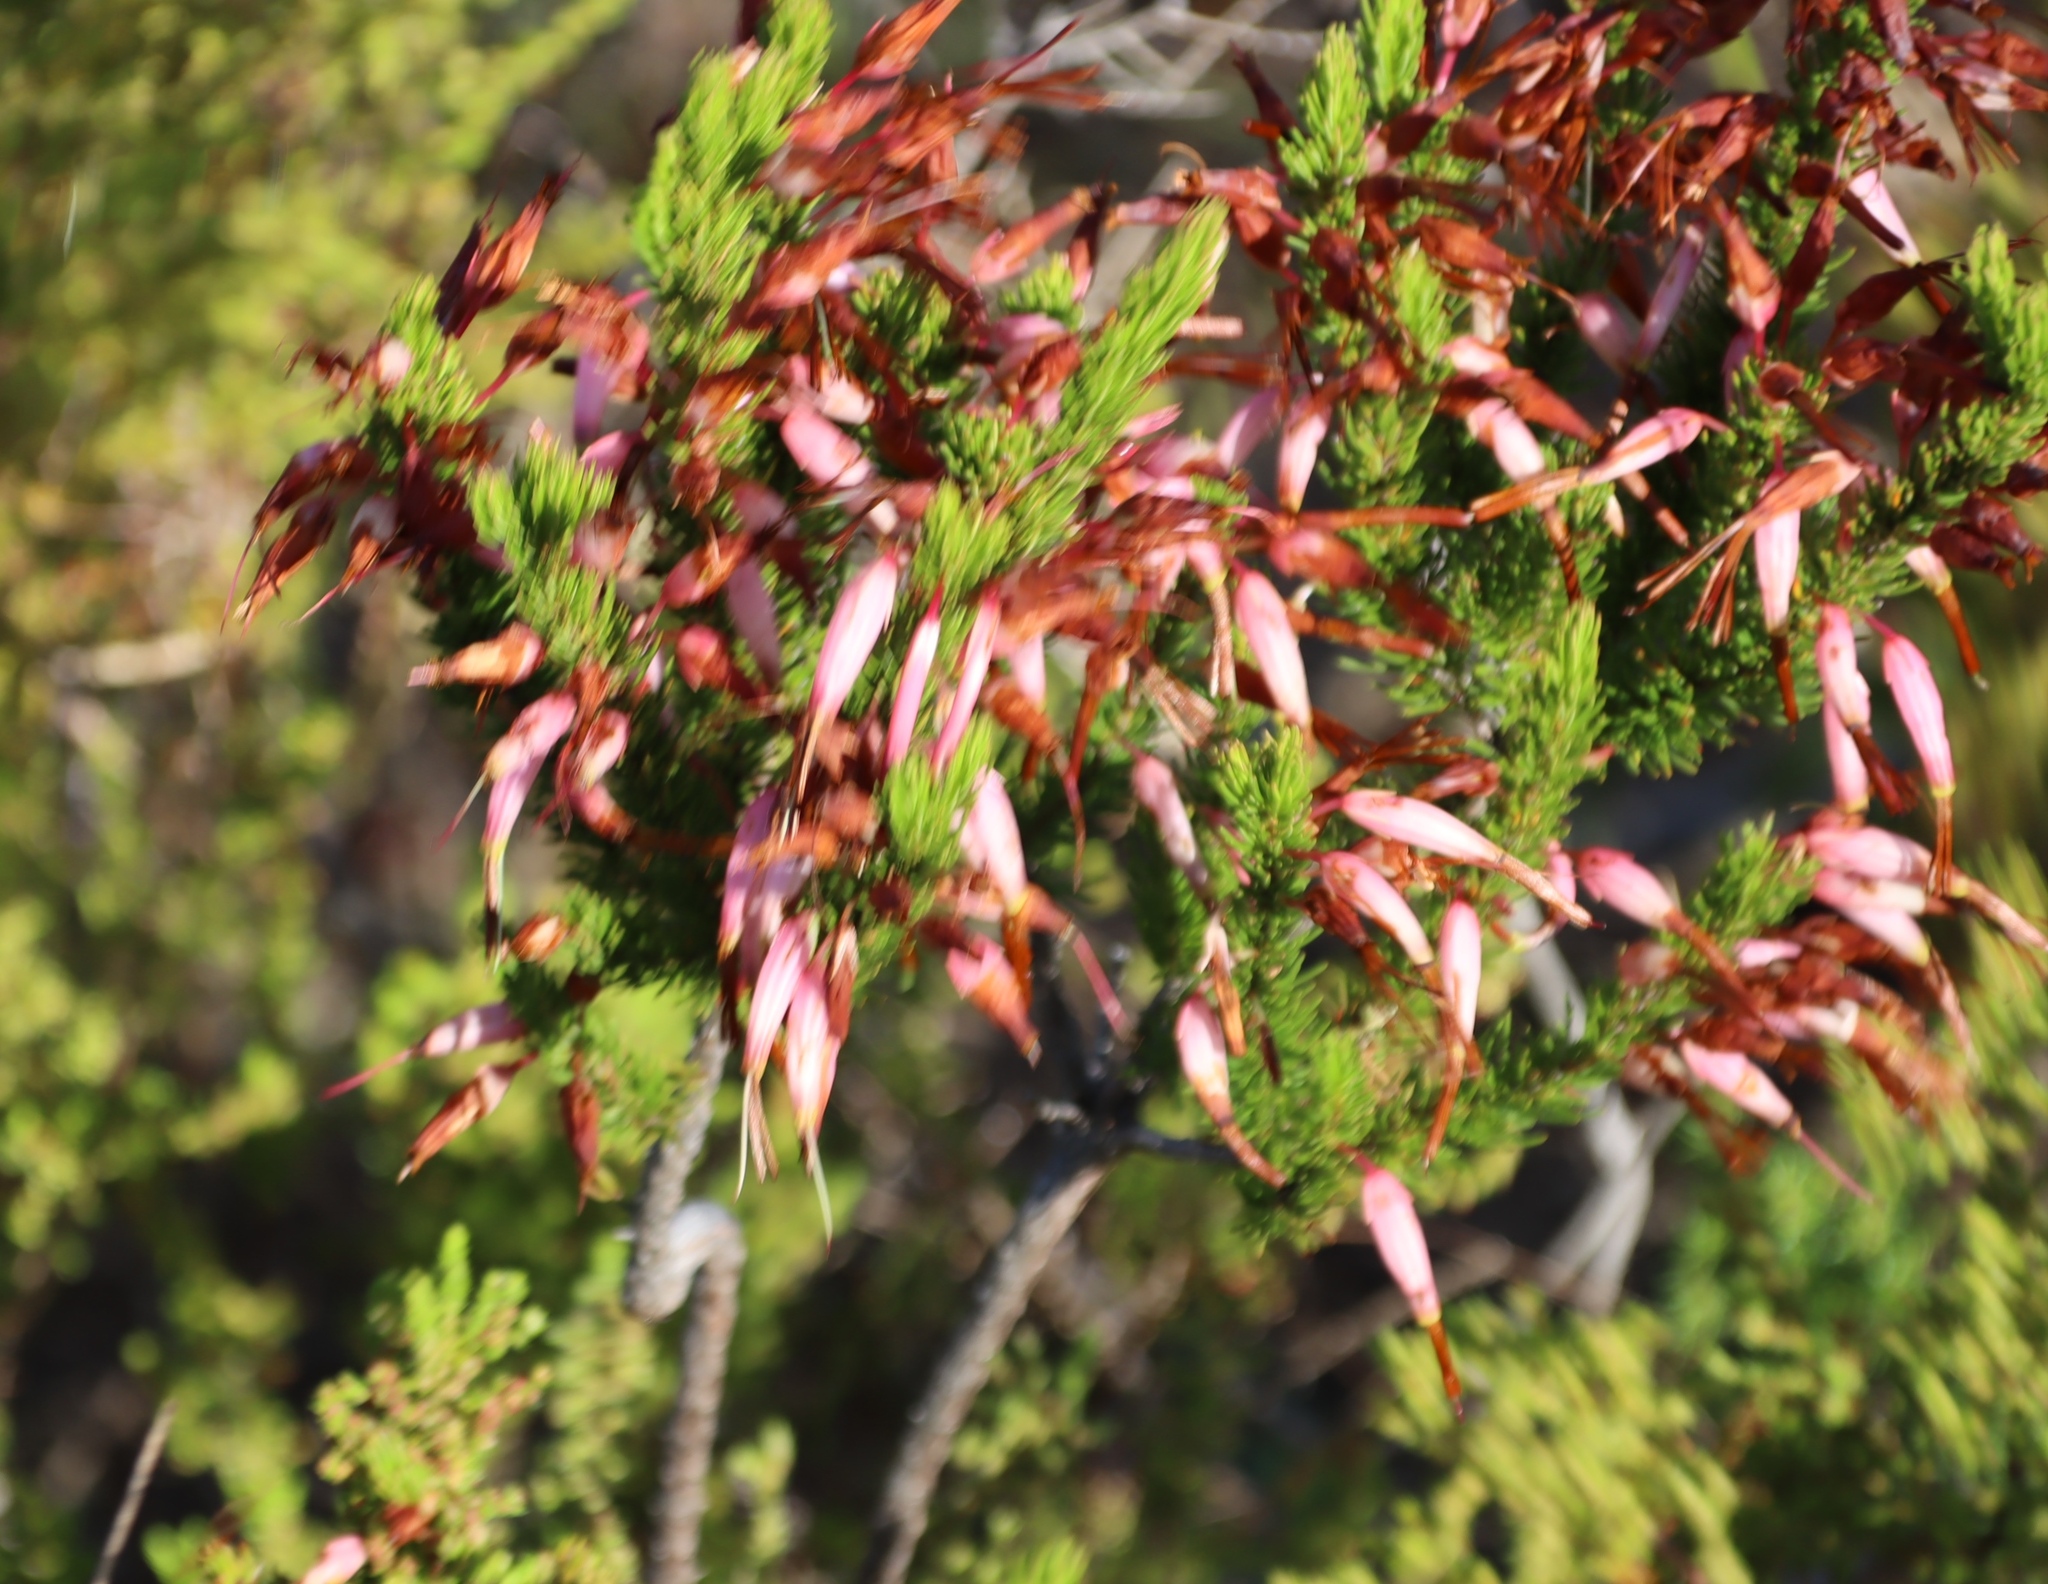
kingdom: Plantae
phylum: Tracheophyta
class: Magnoliopsida
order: Ericales
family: Ericaceae
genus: Erica
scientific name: Erica plukenetii
